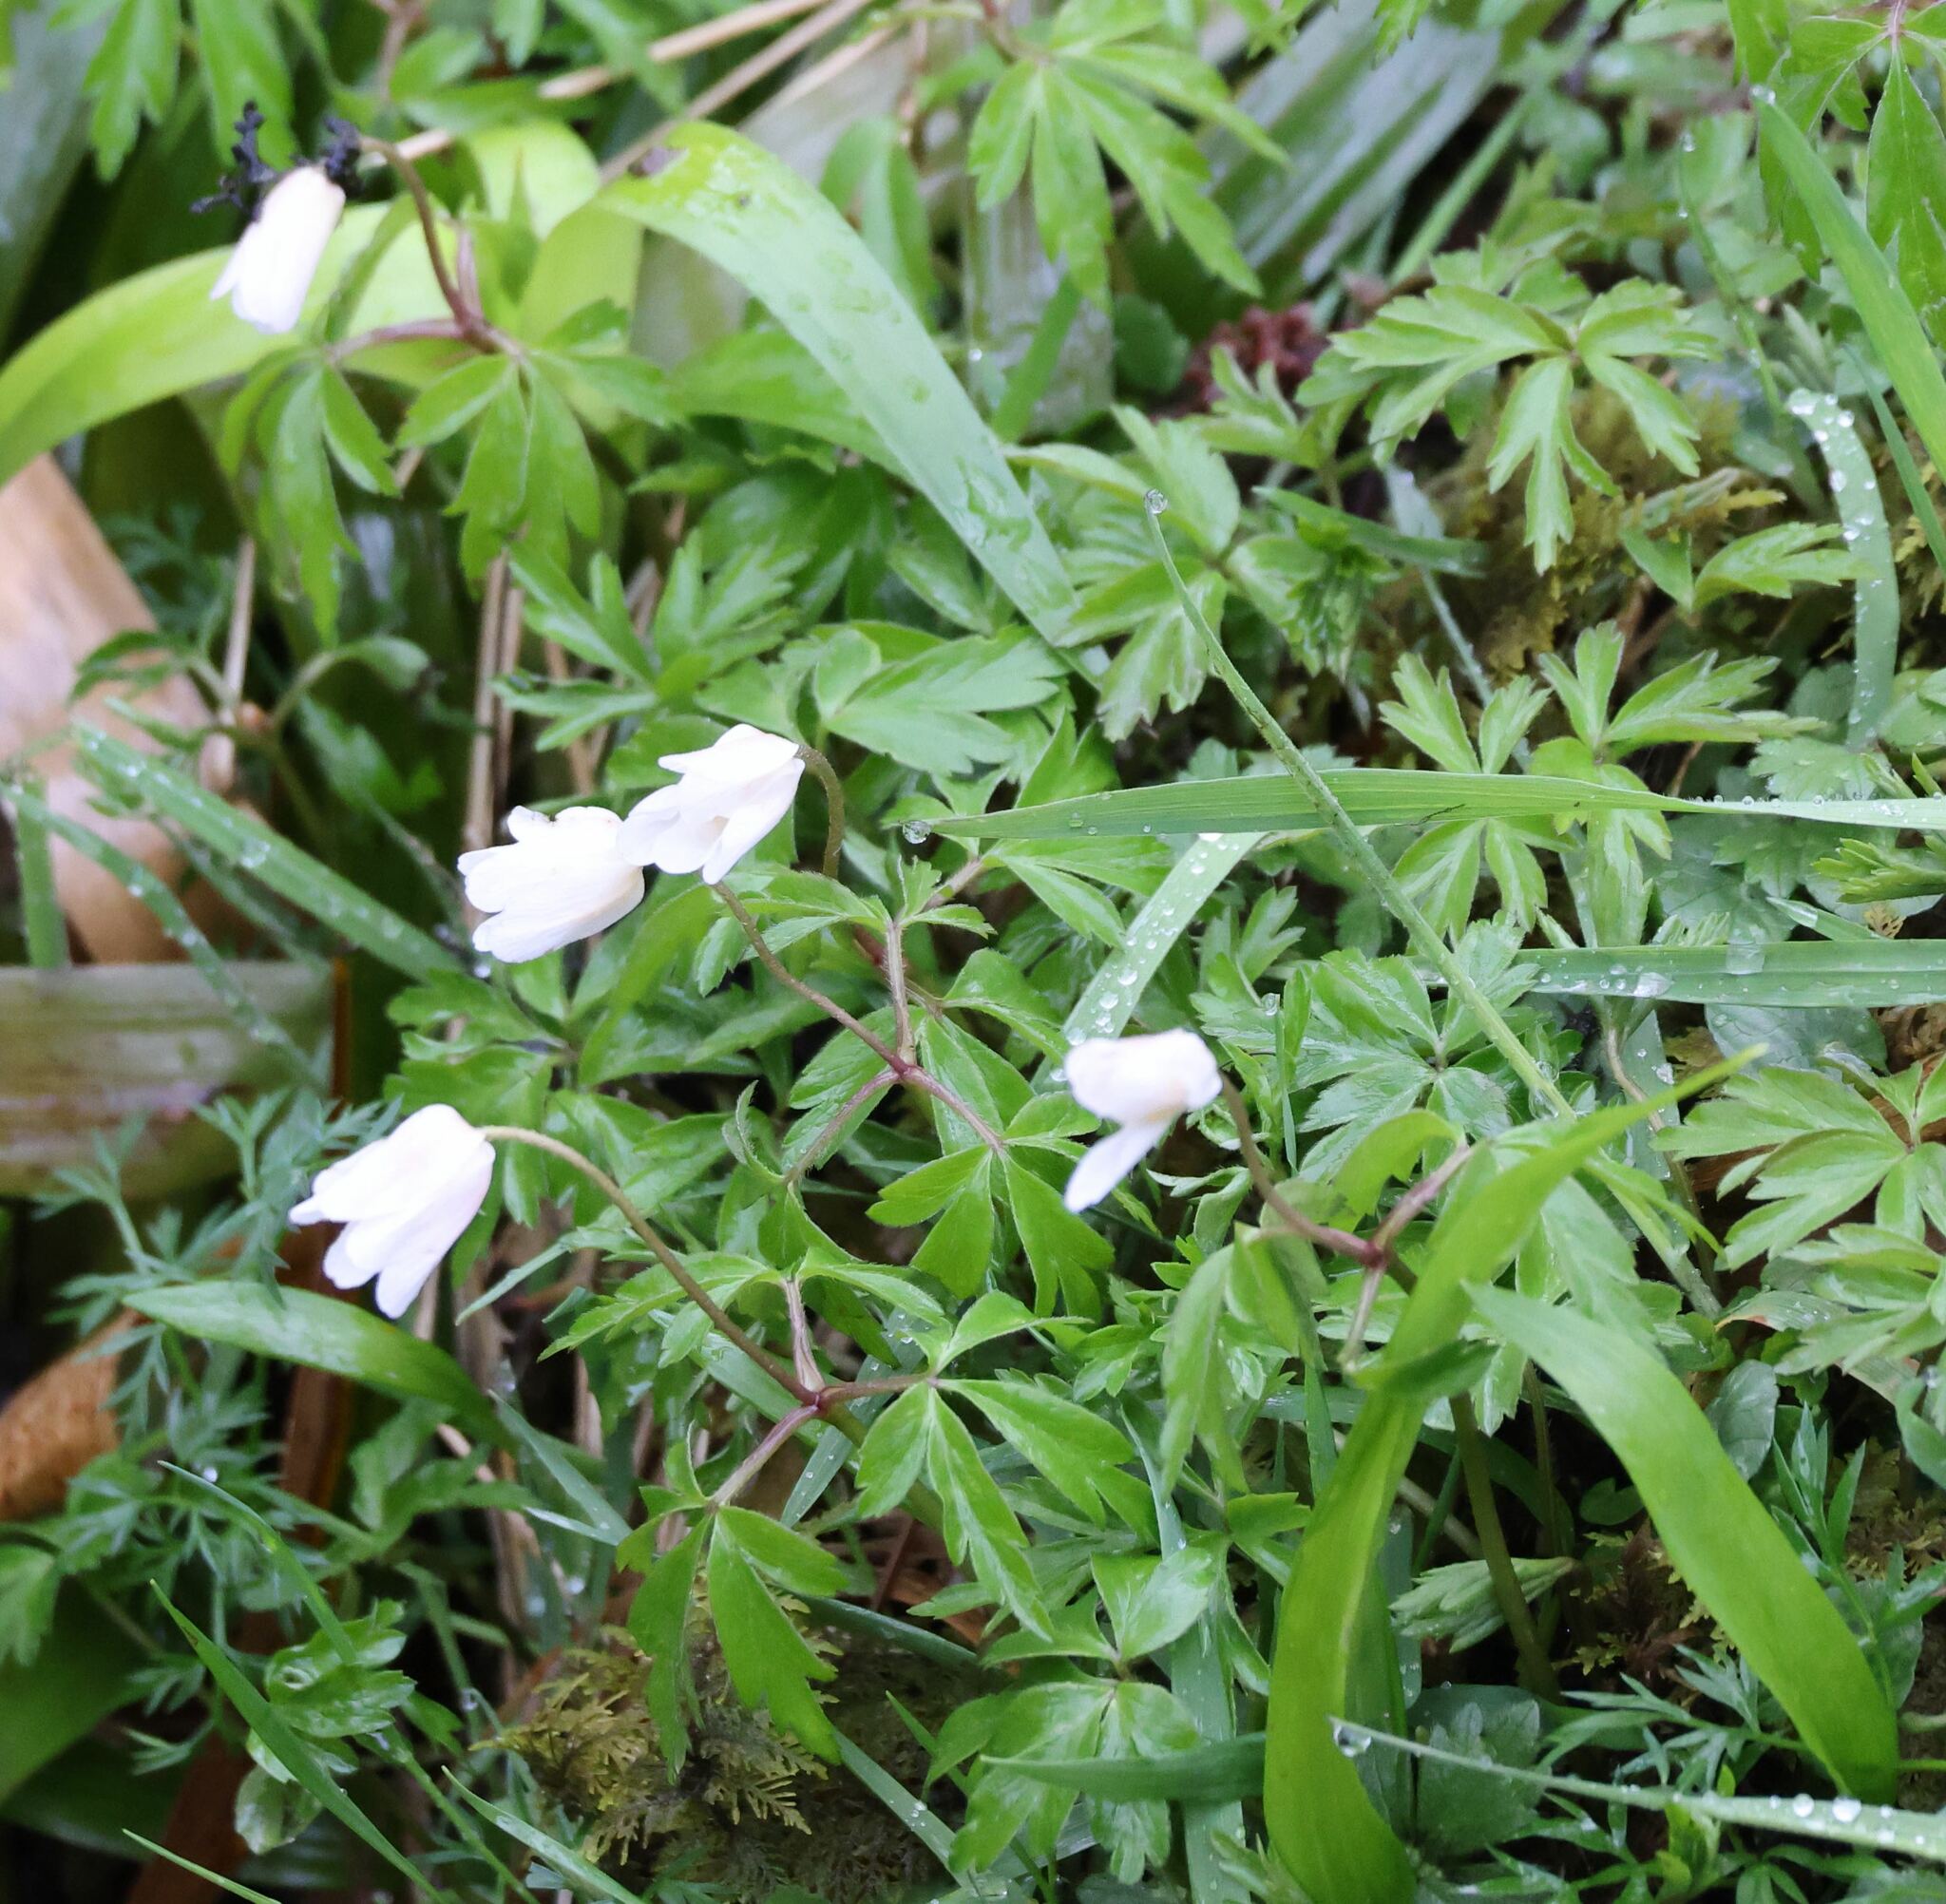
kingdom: Plantae
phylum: Tracheophyta
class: Magnoliopsida
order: Ranunculales
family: Ranunculaceae
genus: Anemone
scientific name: Anemone nemorosa
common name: Wood anemone
